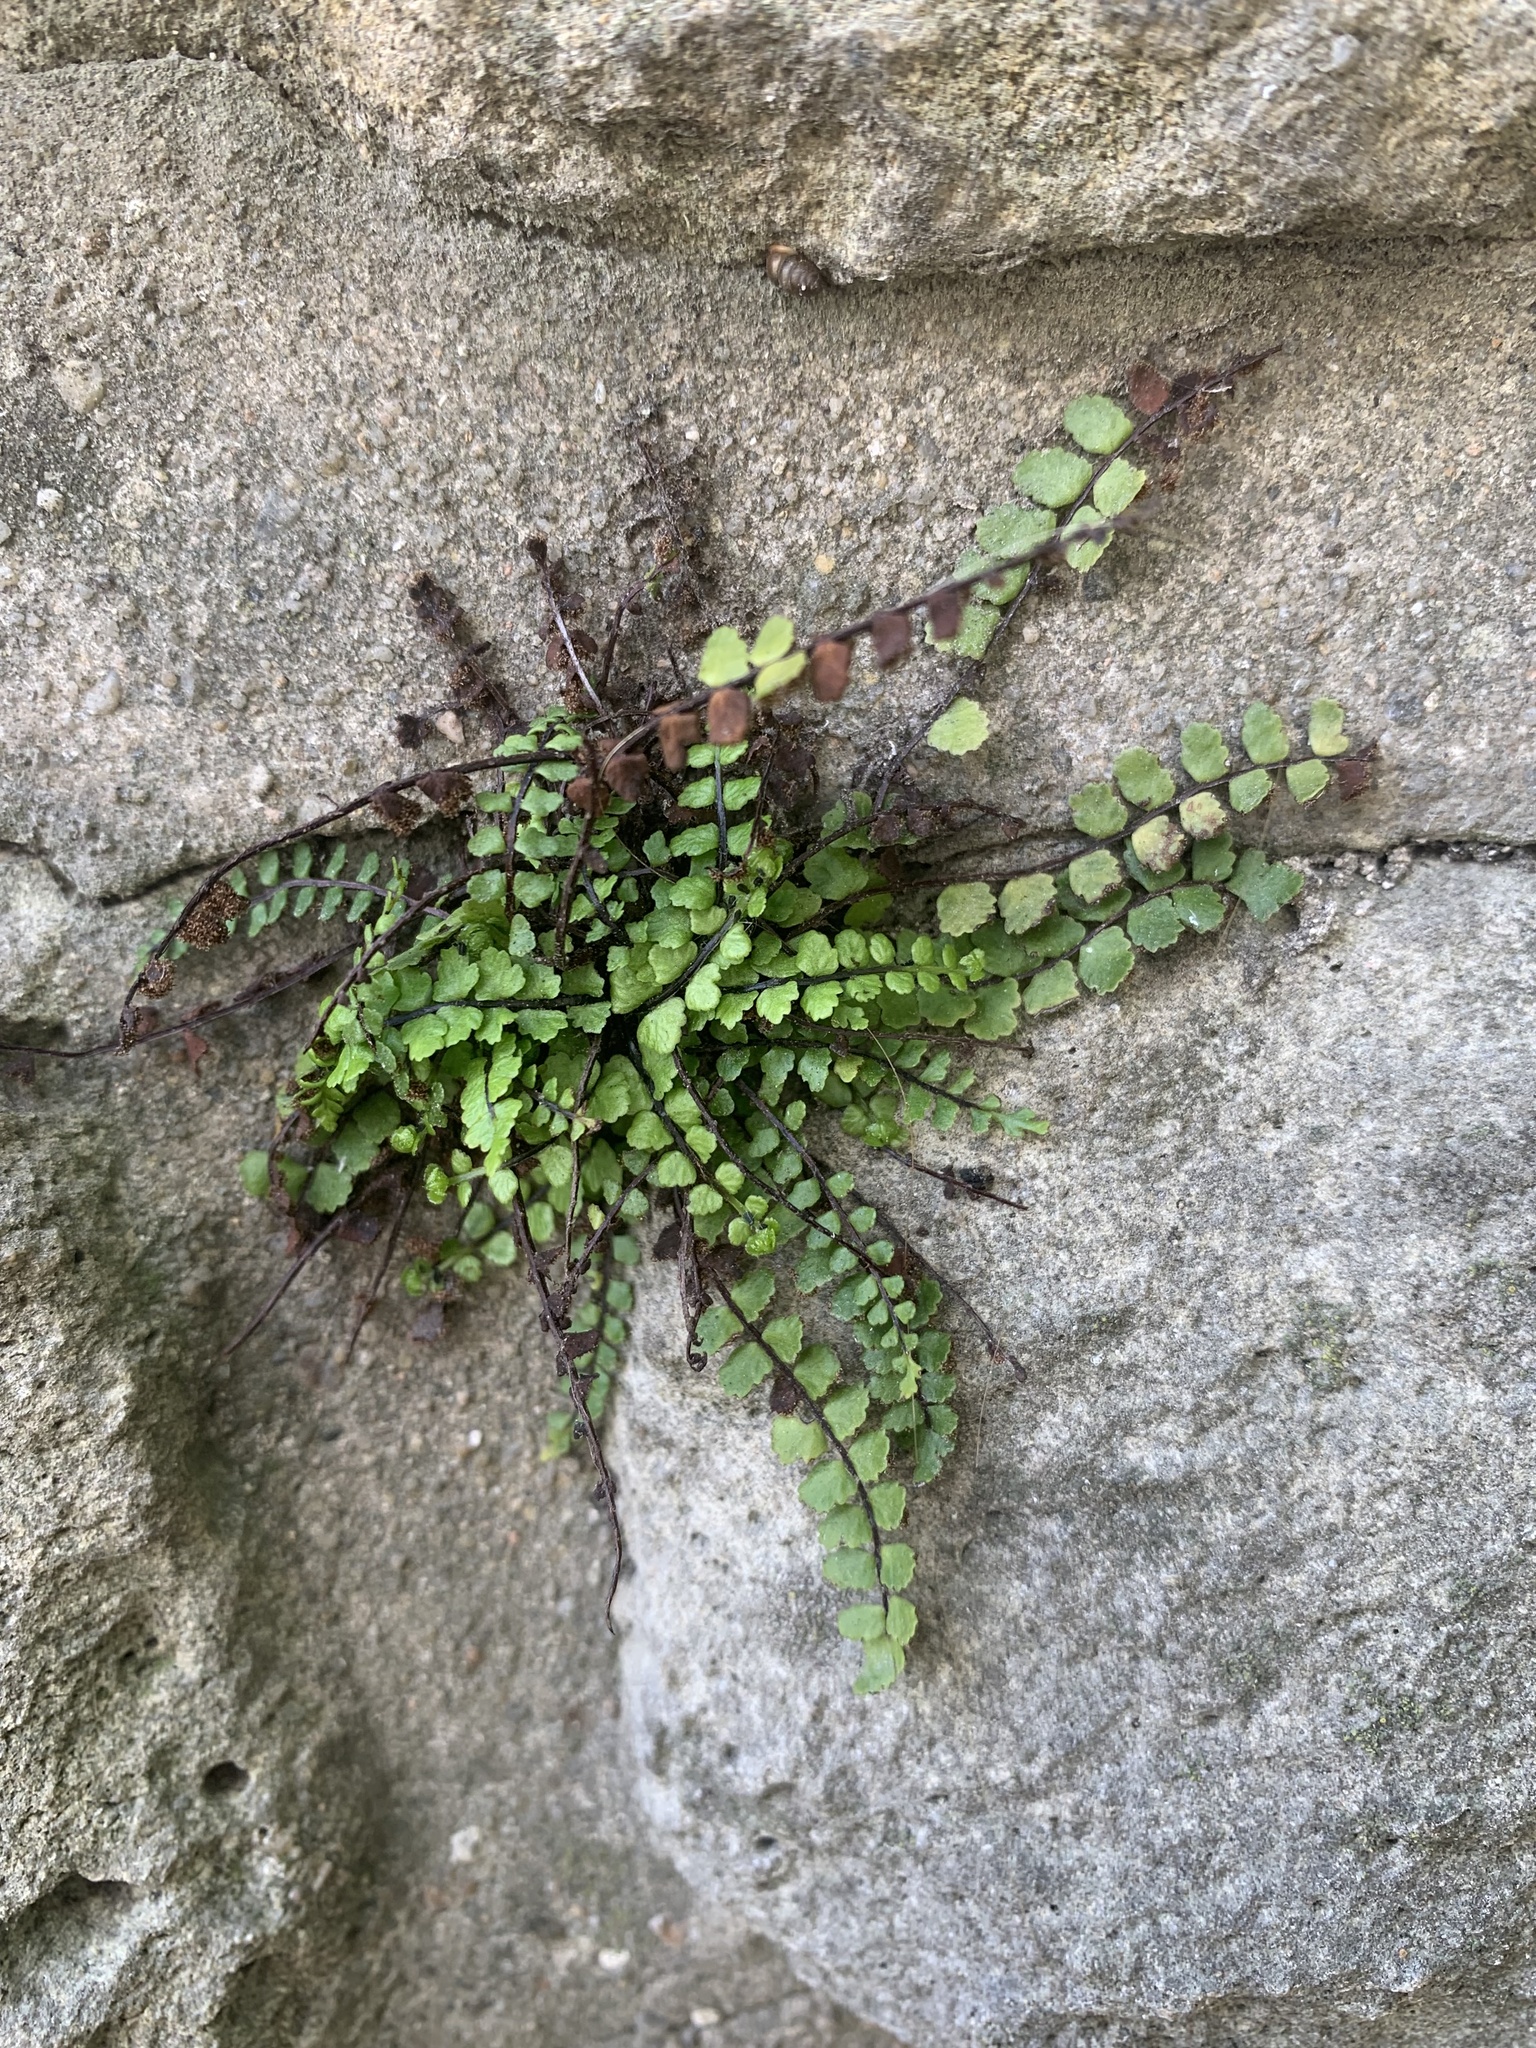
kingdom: Plantae
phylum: Tracheophyta
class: Polypodiopsida
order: Polypodiales
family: Aspleniaceae
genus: Asplenium
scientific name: Asplenium trichomanes
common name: Maidenhair spleenwort
